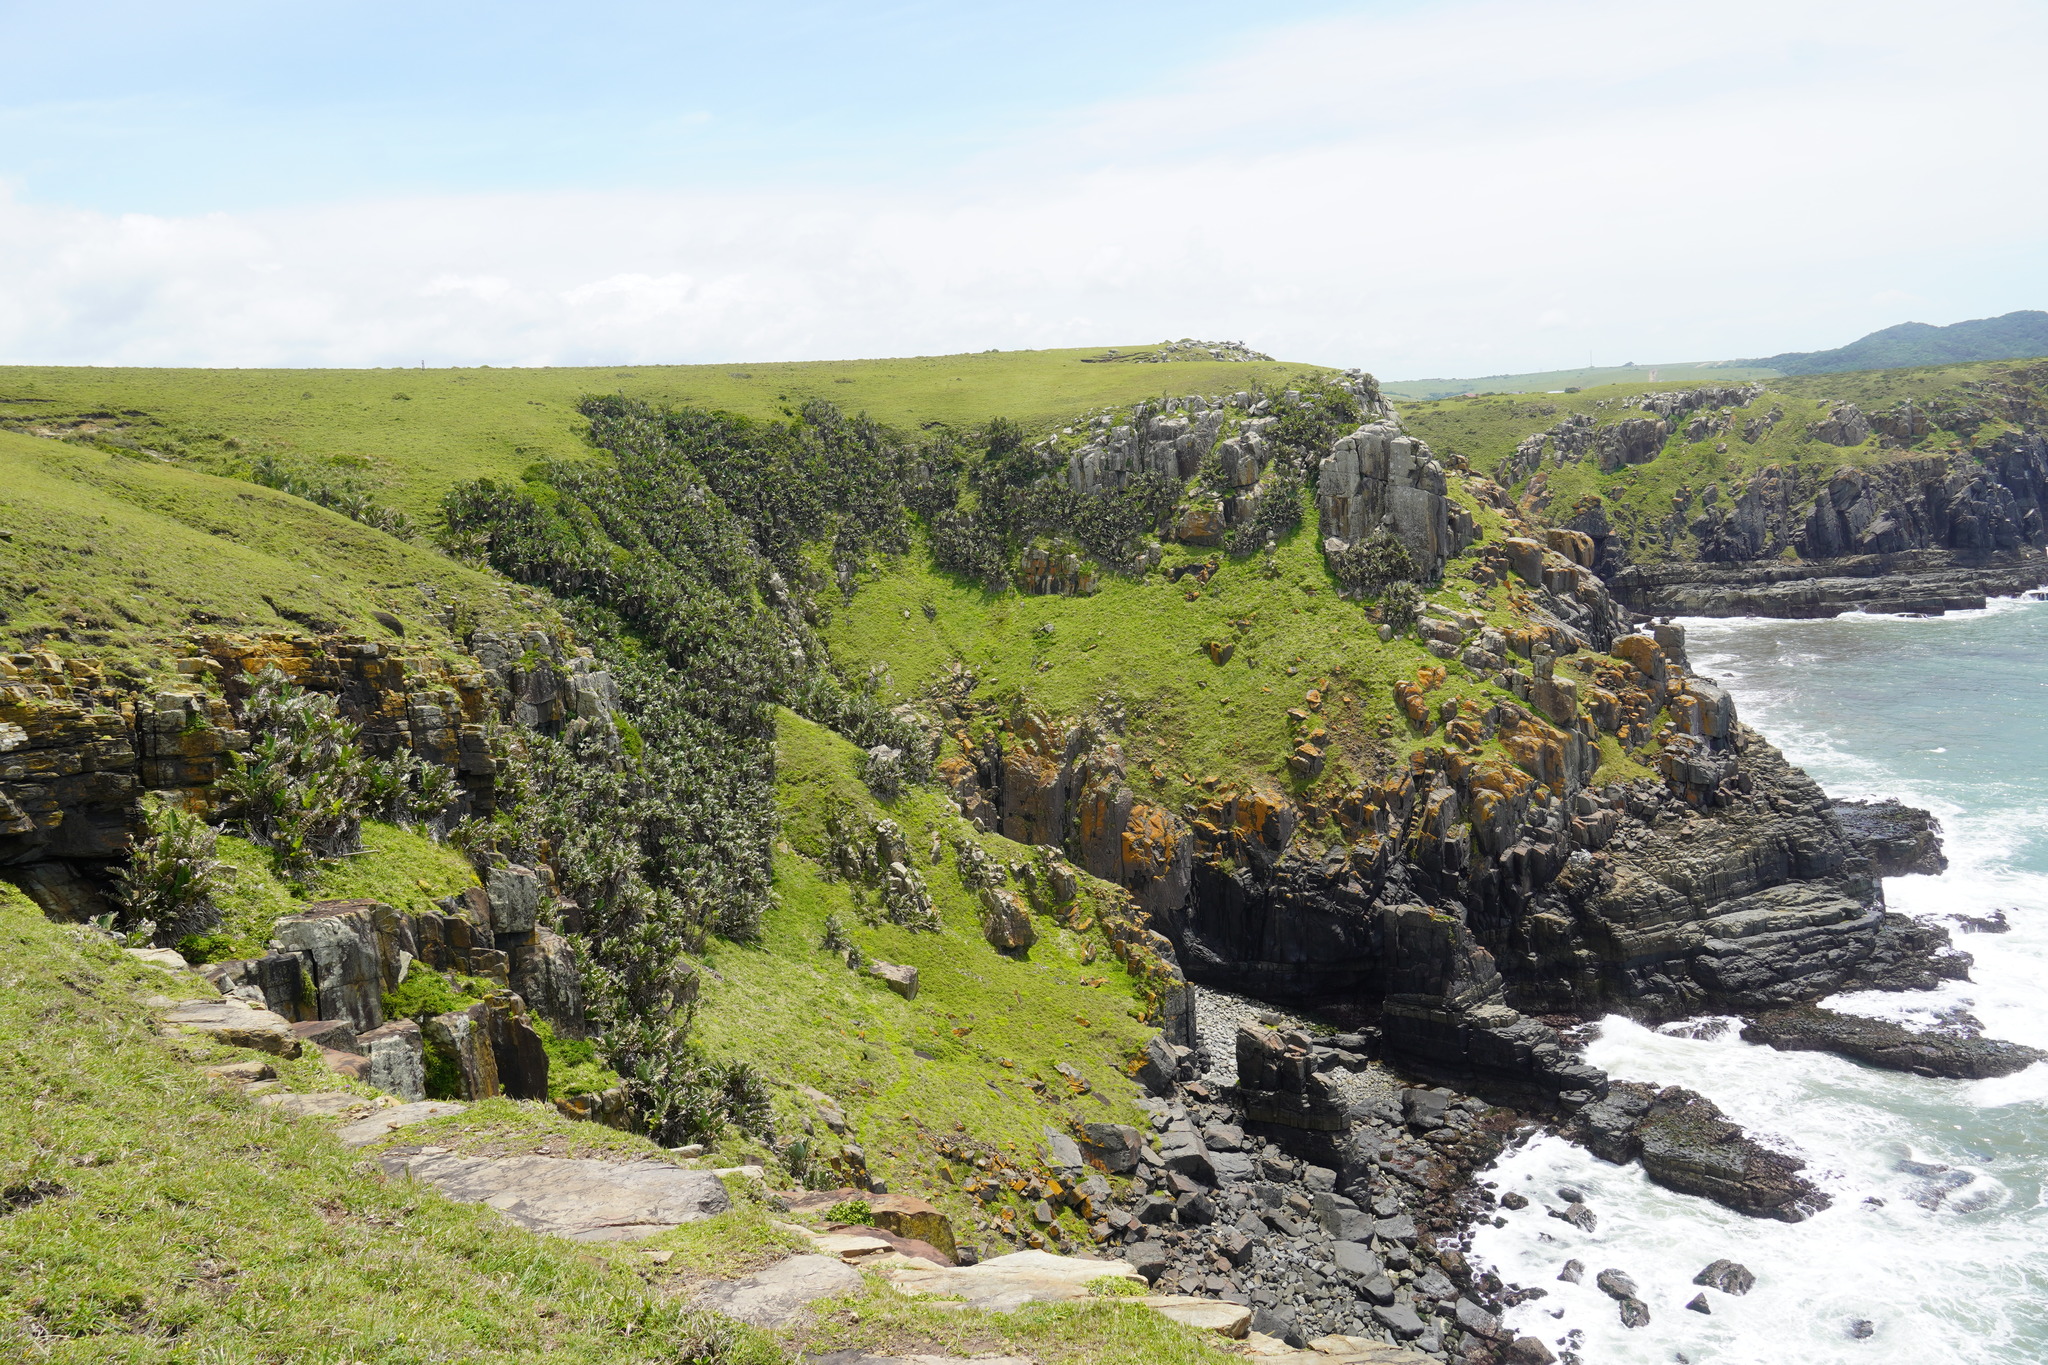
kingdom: Plantae
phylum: Tracheophyta
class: Liliopsida
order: Zingiberales
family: Strelitziaceae
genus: Strelitzia
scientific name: Strelitzia nicolai
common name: Bird-of-paradise tree
